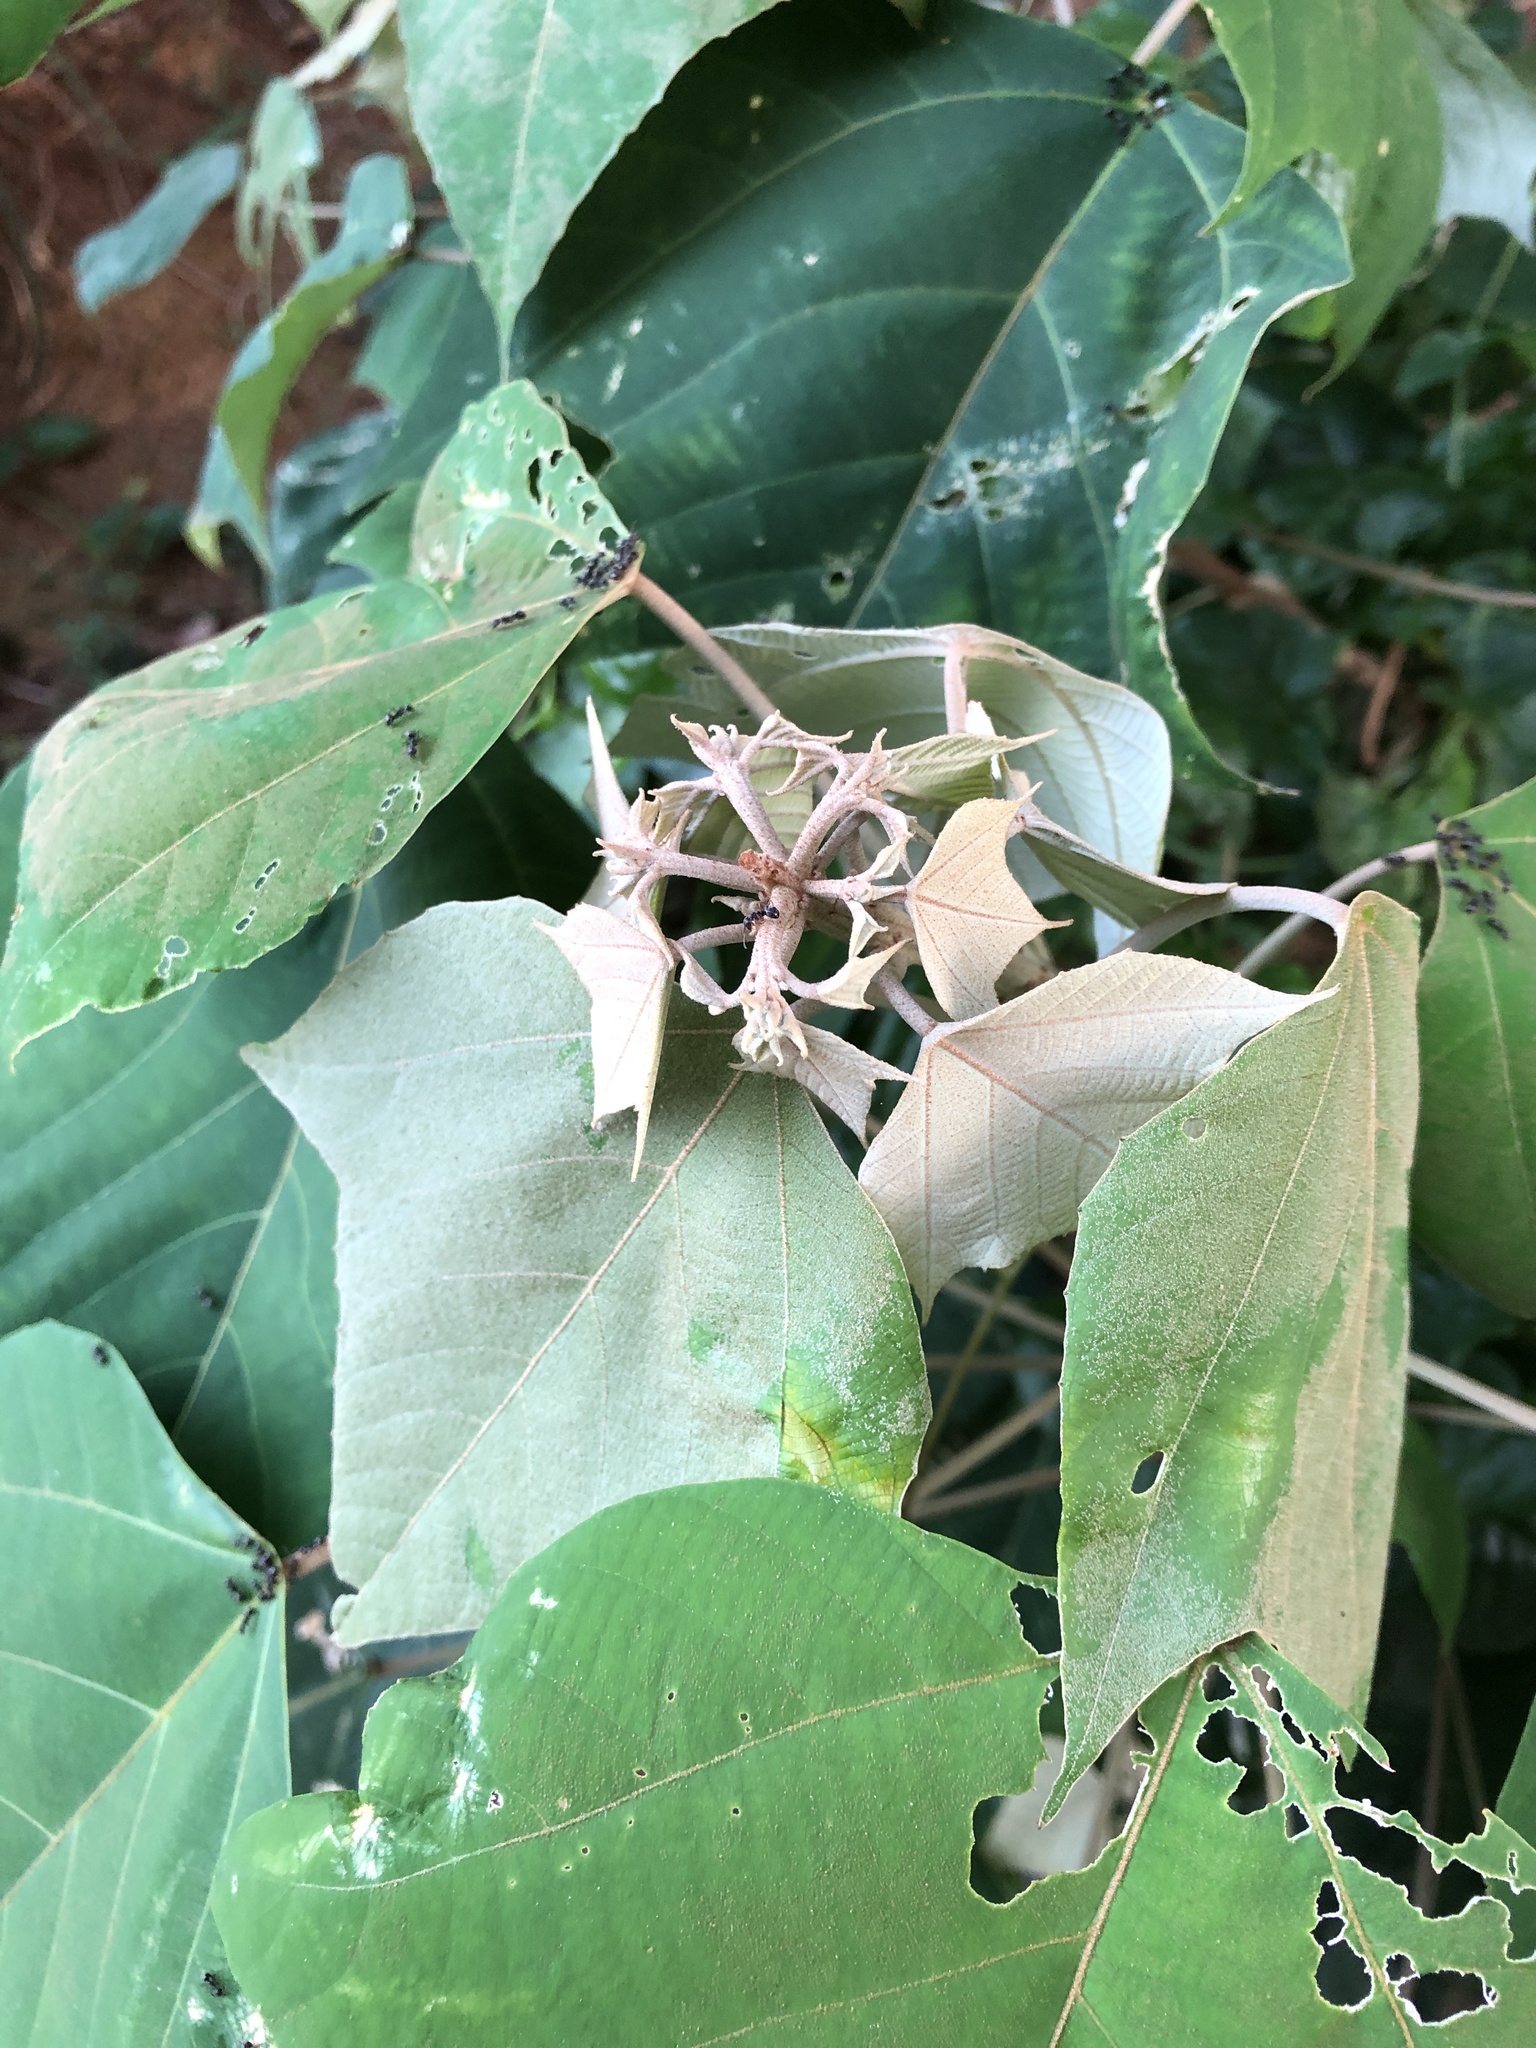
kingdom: Plantae
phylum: Tracheophyta
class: Magnoliopsida
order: Malpighiales
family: Euphorbiaceae
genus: Mallotus
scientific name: Mallotus paniculatus
